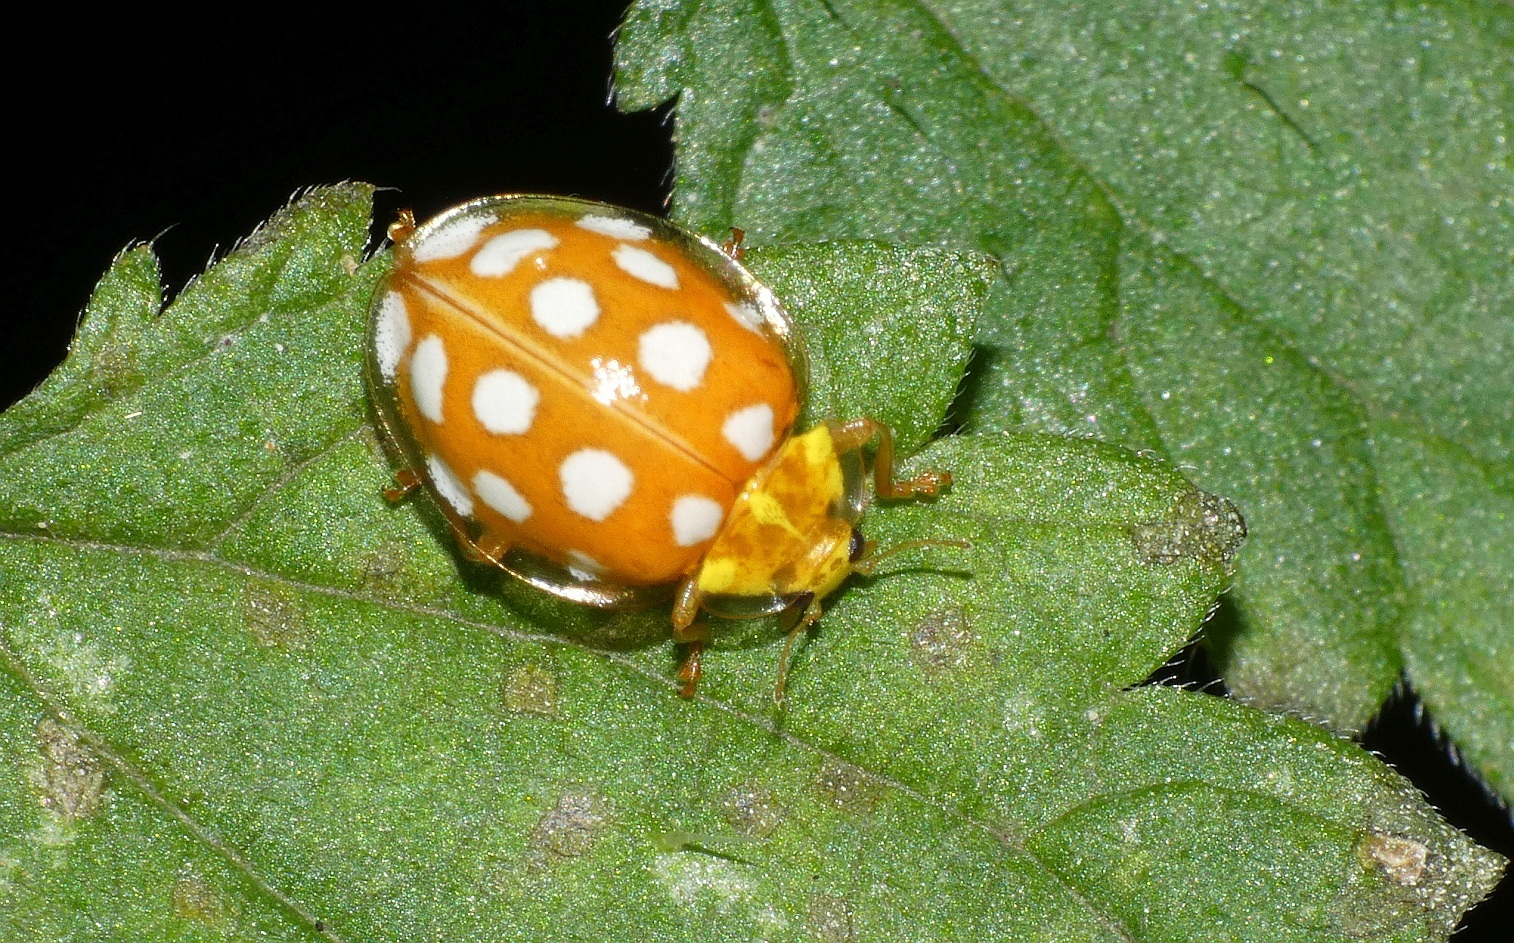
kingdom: Animalia
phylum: Arthropoda
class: Insecta
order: Coleoptera
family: Coccinellidae
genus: Halyzia
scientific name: Halyzia sedecimguttata
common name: Orange ladybird
